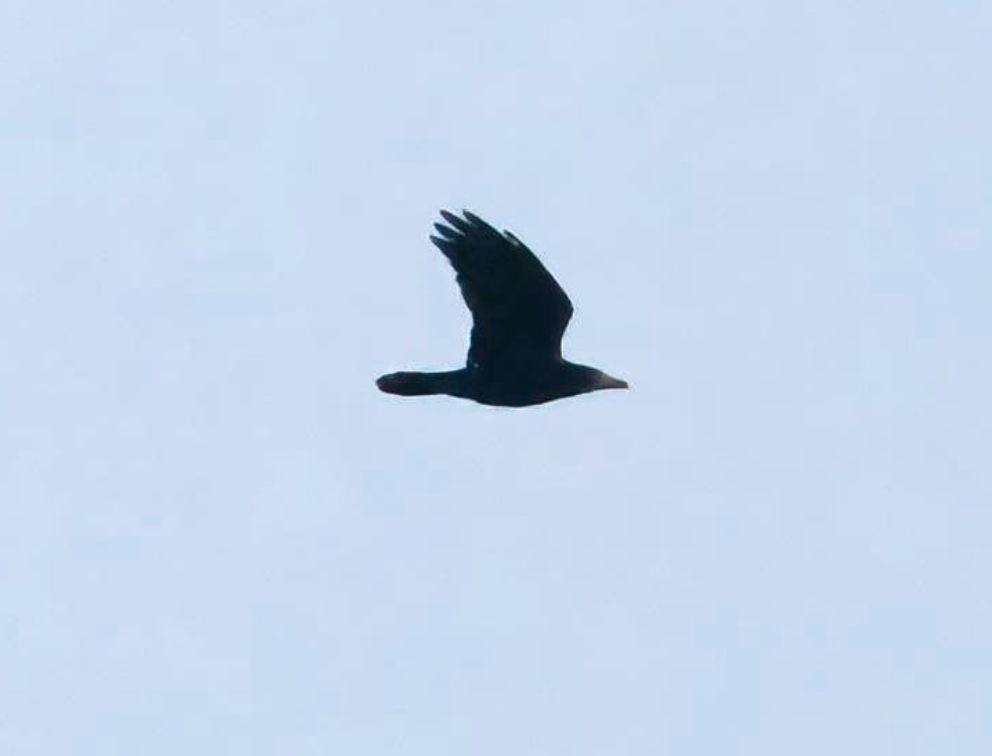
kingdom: Animalia
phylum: Chordata
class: Aves
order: Passeriformes
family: Corvidae
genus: Corvus
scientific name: Corvus frugilegus
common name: Rook
